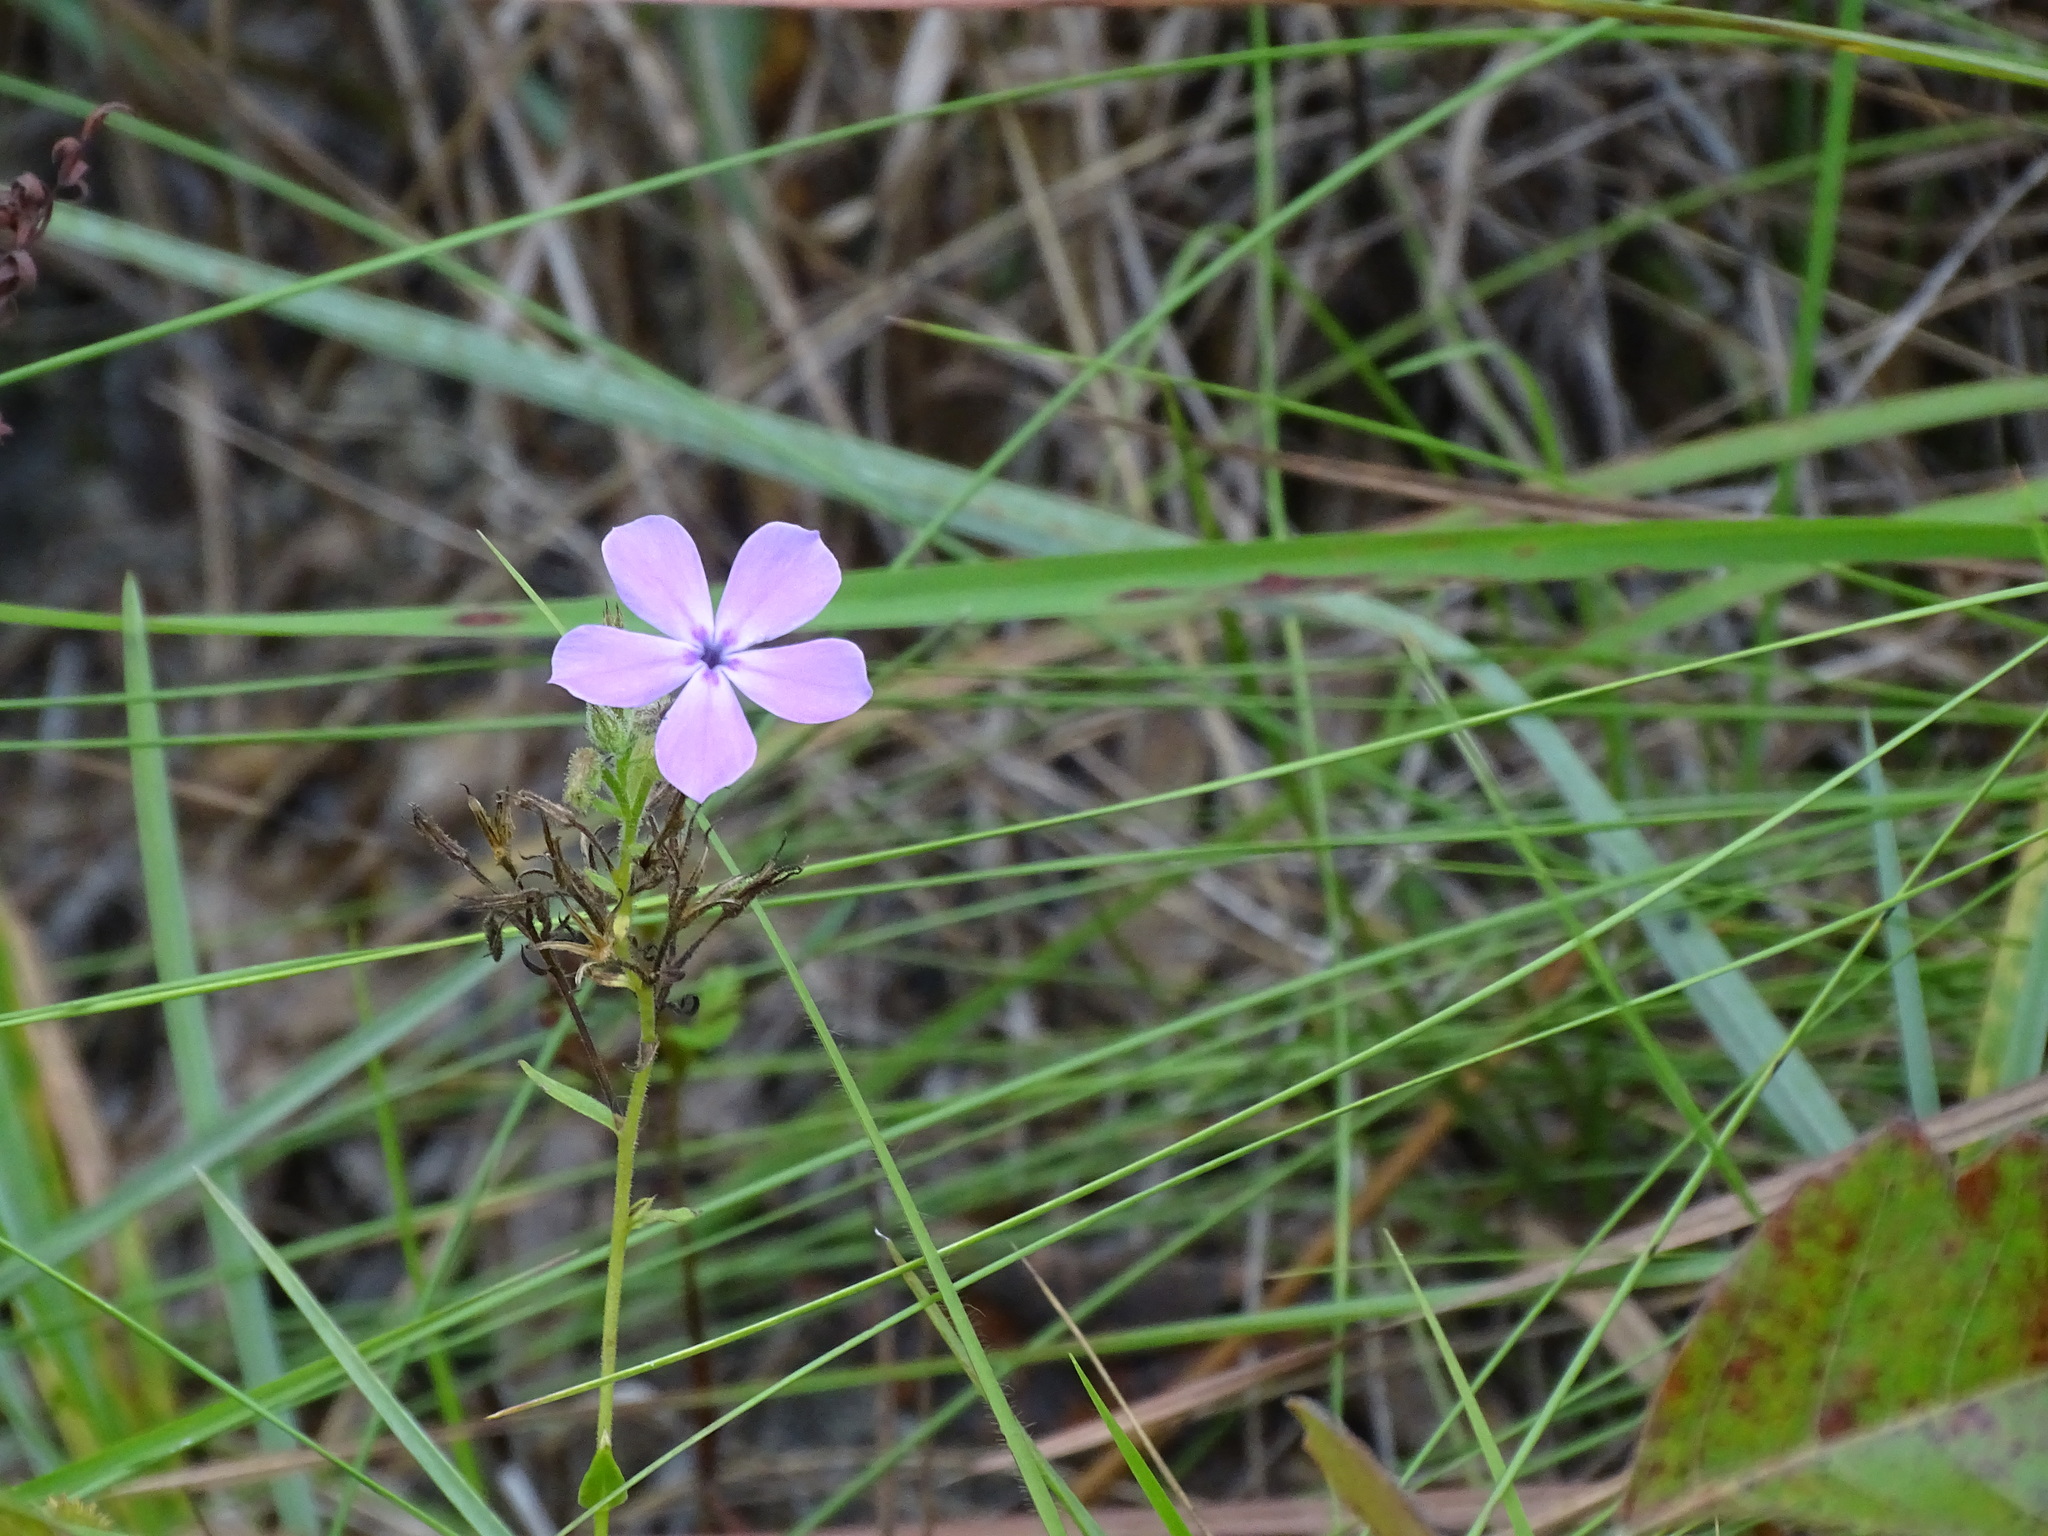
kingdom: Plantae
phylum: Tracheophyta
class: Magnoliopsida
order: Ericales
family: Polemoniaceae
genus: Phlox
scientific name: Phlox pilosa
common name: Prairie phlox
